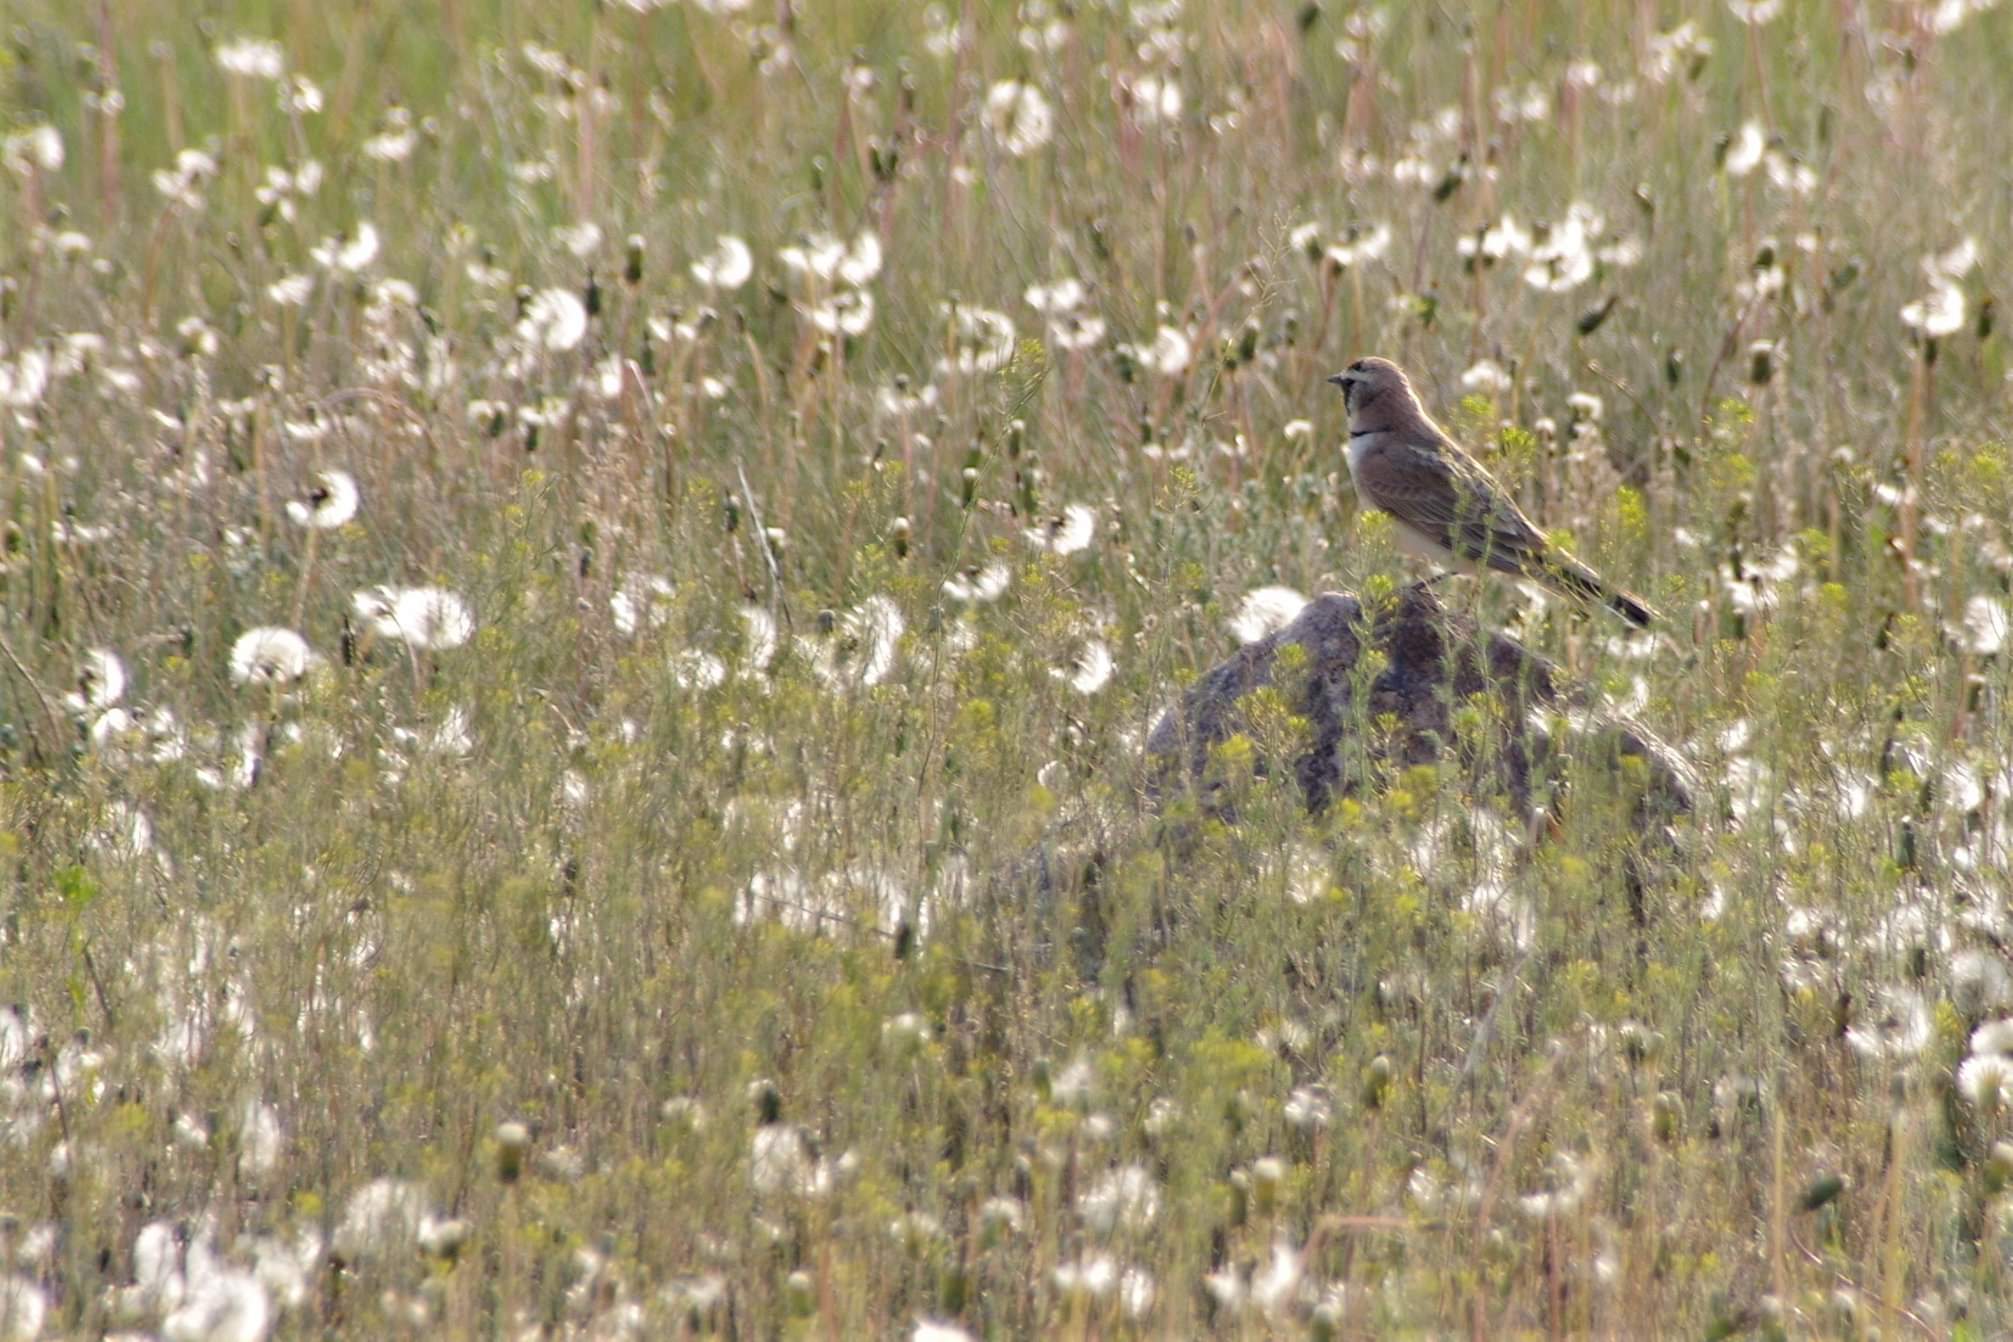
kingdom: Animalia
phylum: Chordata
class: Aves
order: Passeriformes
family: Alaudidae
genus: Eremophila
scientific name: Eremophila alpestris
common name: Horned lark
